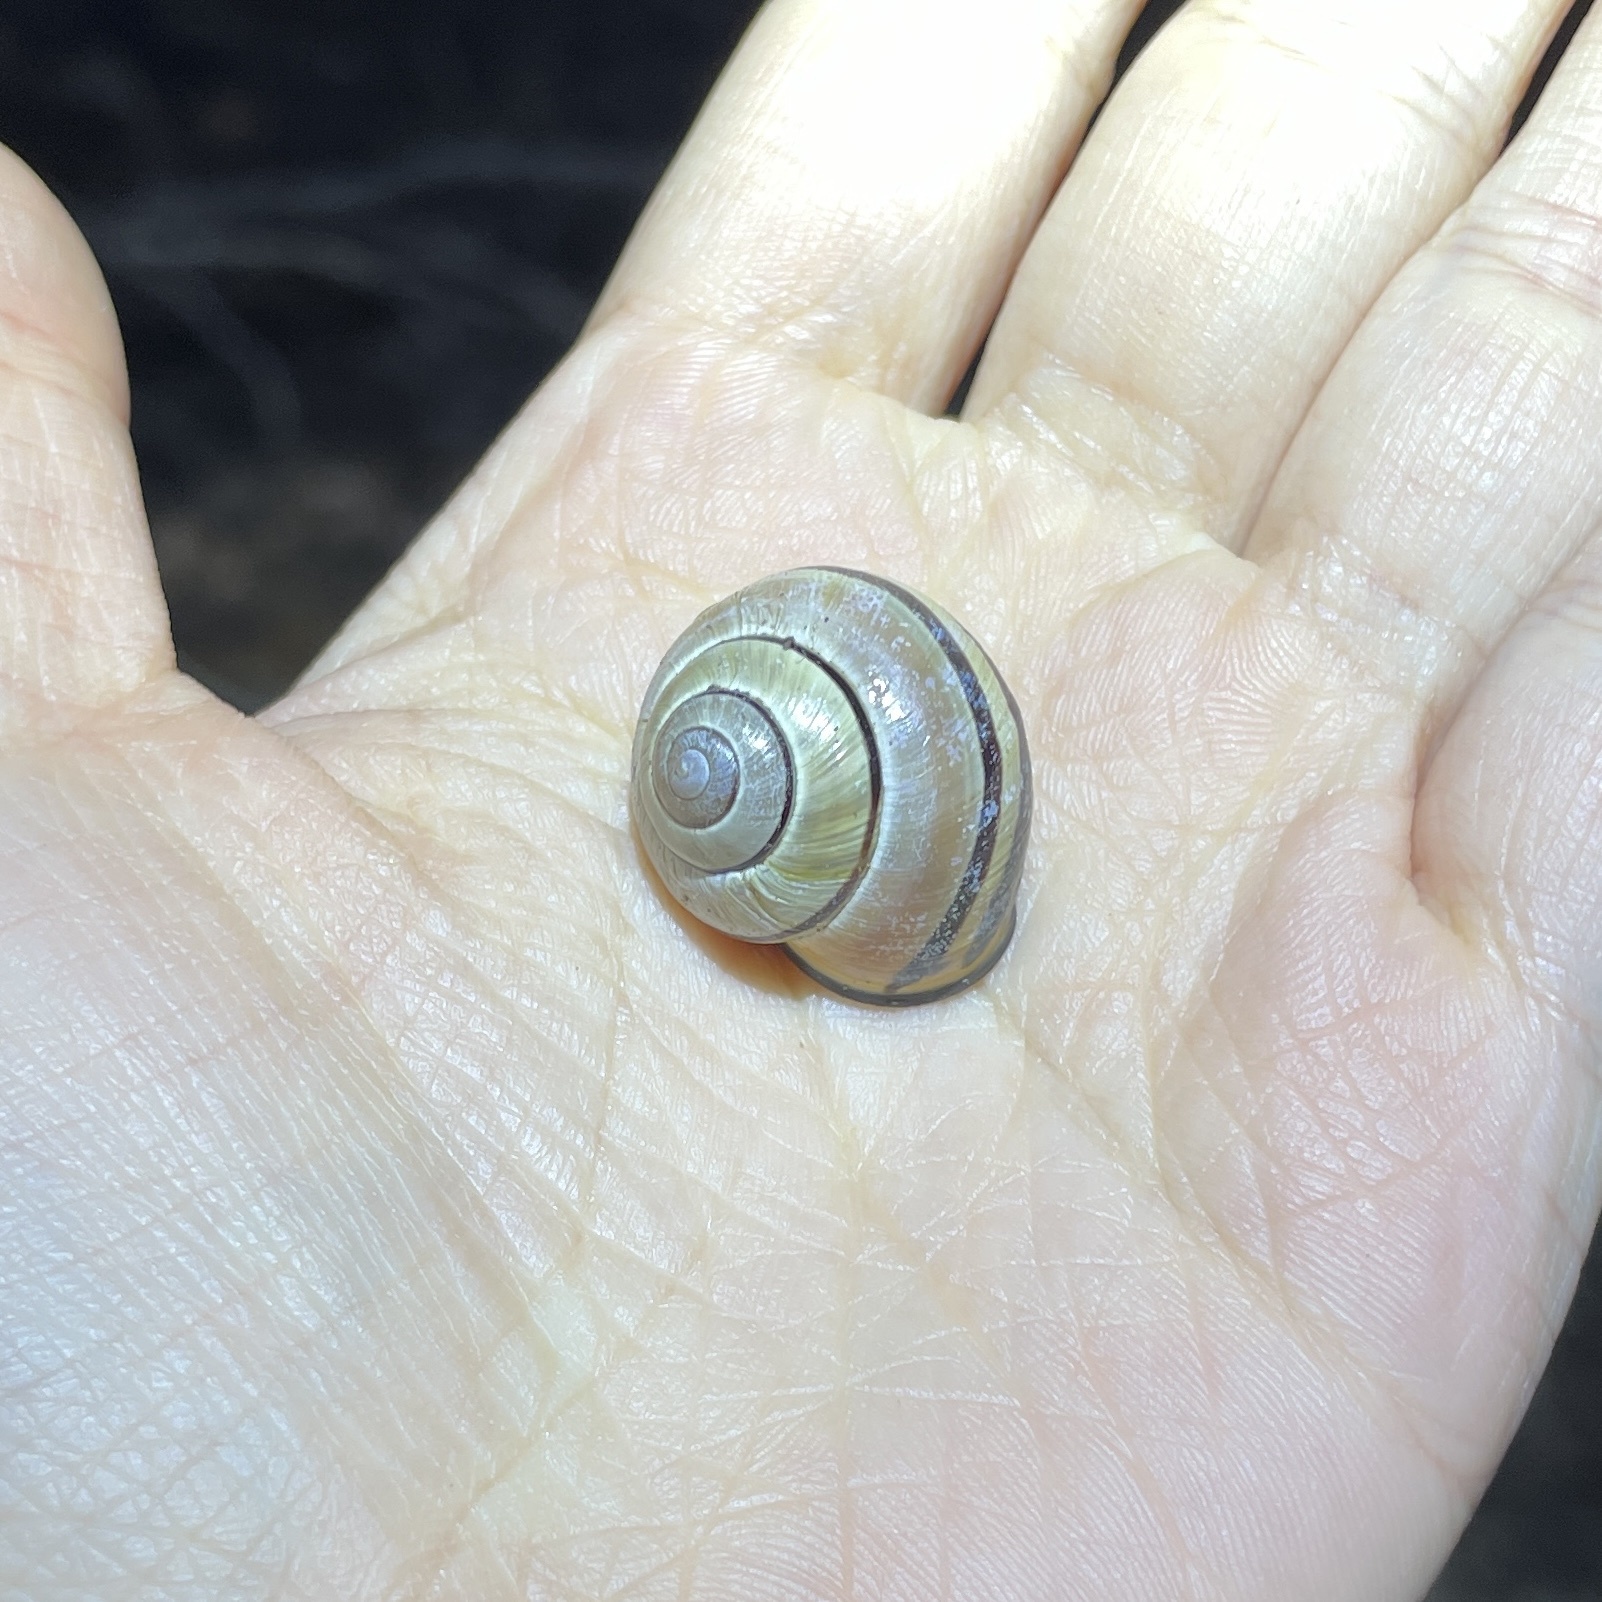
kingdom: Animalia
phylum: Mollusca
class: Gastropoda
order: Stylommatophora
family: Helicidae
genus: Cepaea
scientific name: Cepaea nemoralis
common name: Grovesnail
